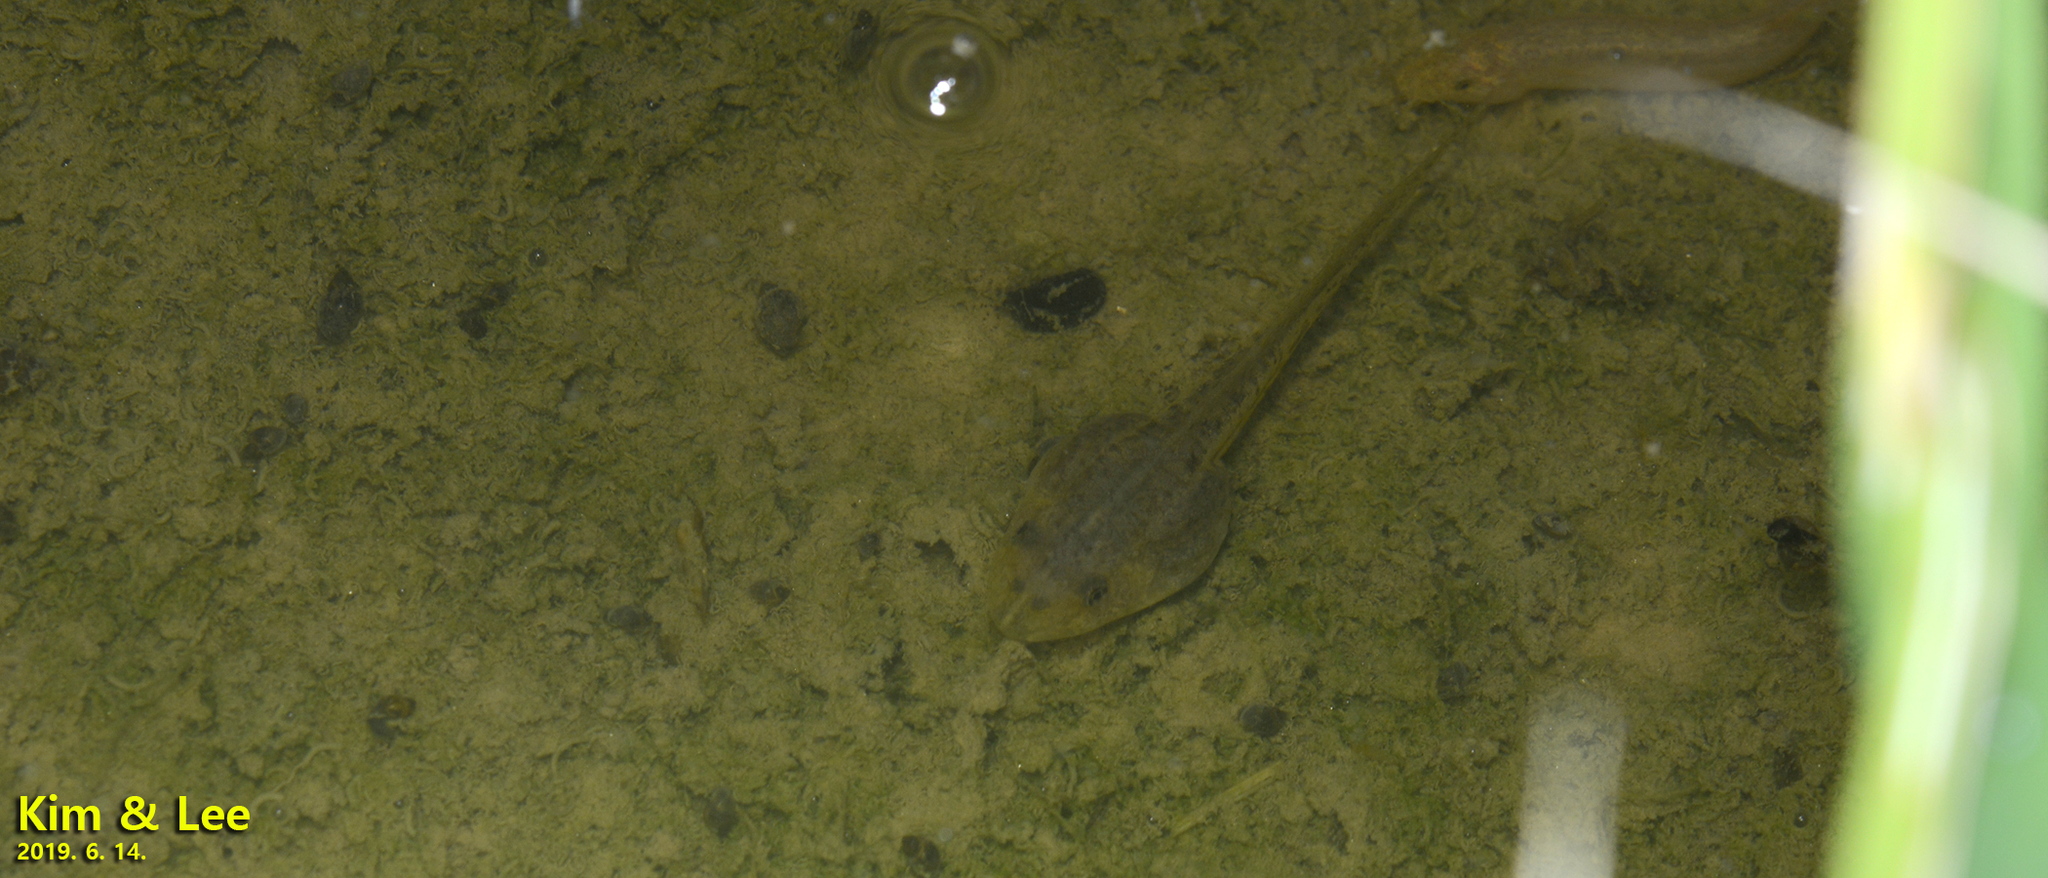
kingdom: Animalia
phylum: Chordata
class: Amphibia
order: Anura
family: Ranidae
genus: Pelophylax
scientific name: Pelophylax nigromaculatus
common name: Black-spotted pond frog
